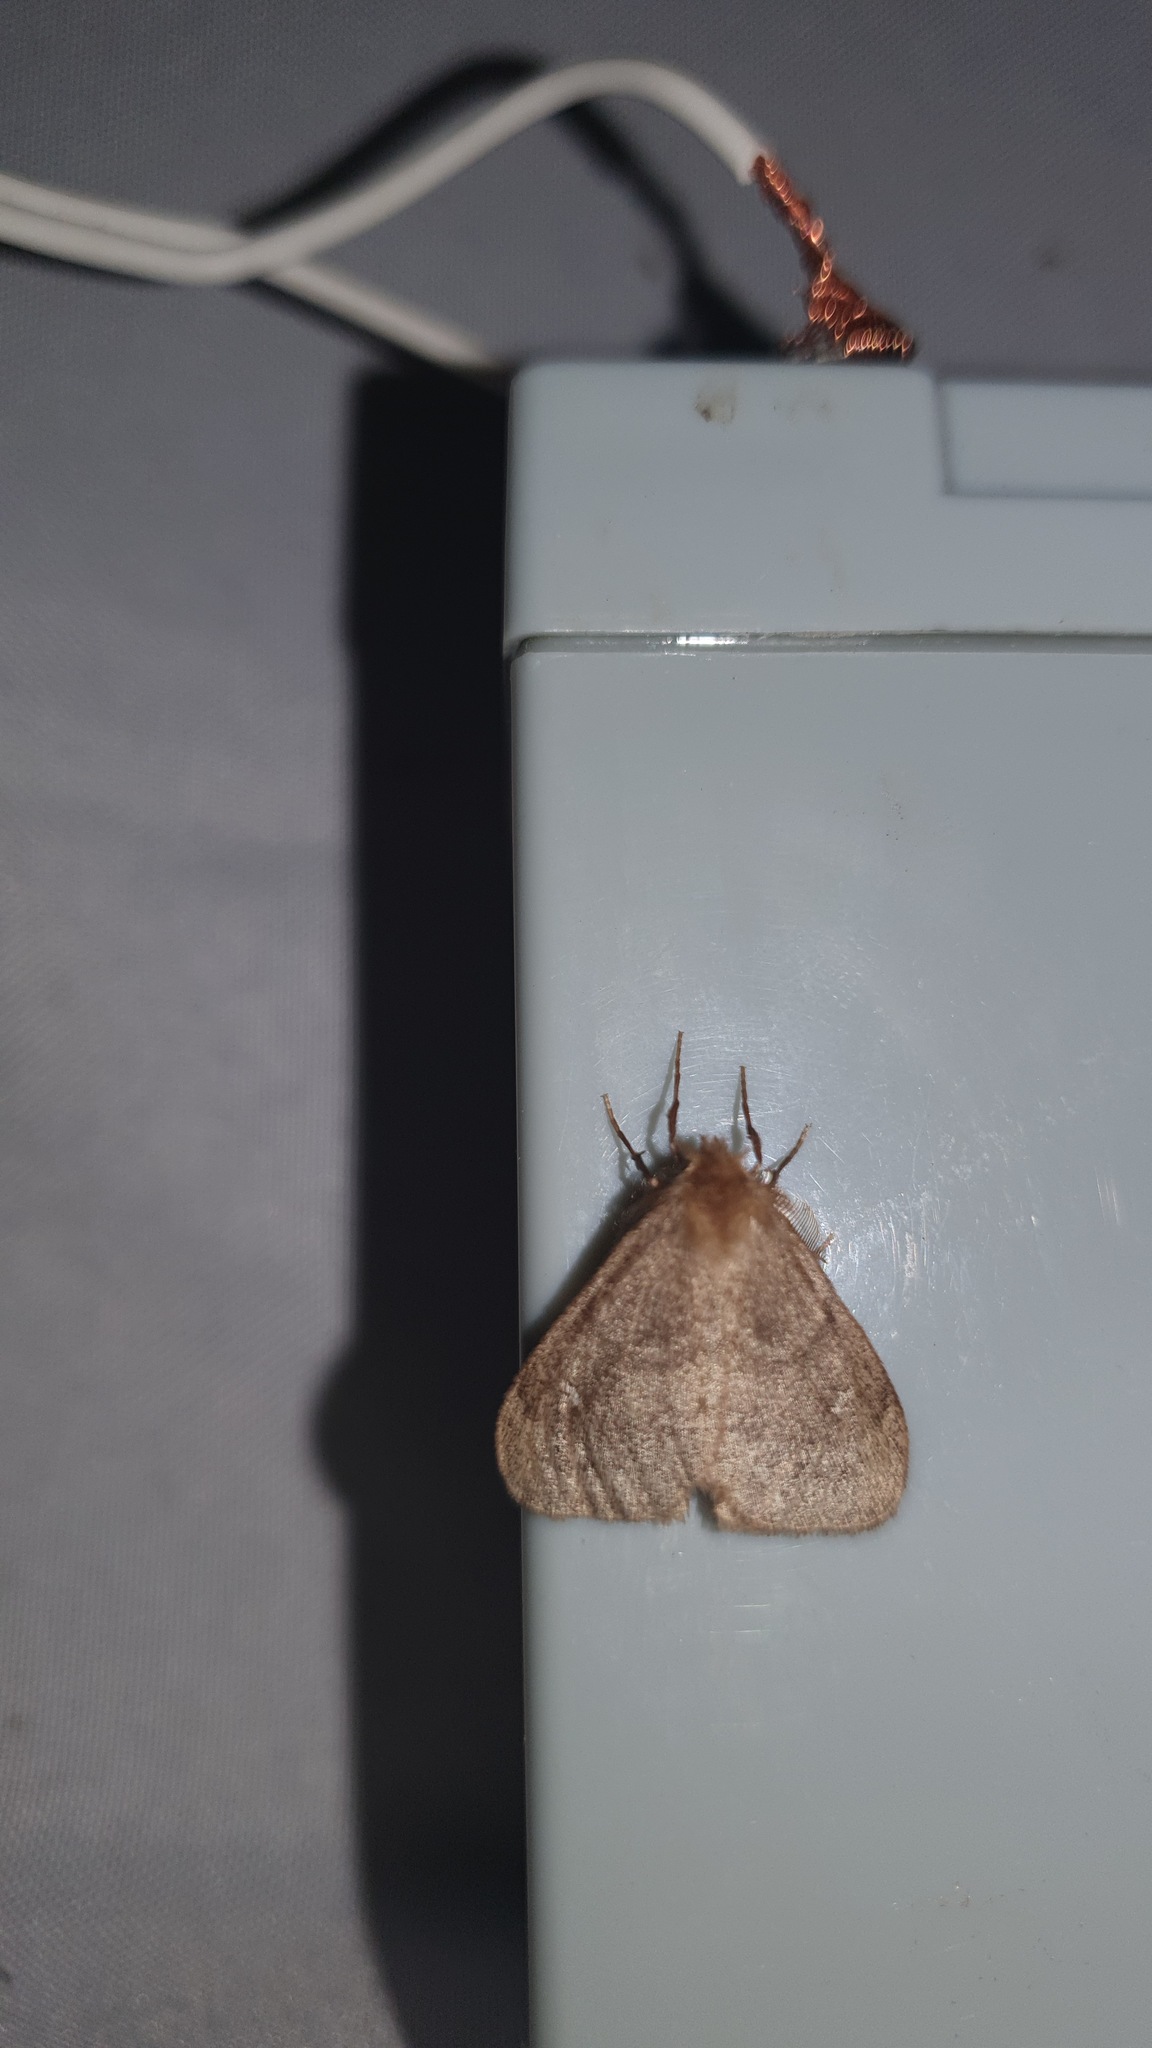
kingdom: Animalia
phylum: Arthropoda
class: Insecta
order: Lepidoptera
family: Erebidae
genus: Ocneria
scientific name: Ocneria rubea
